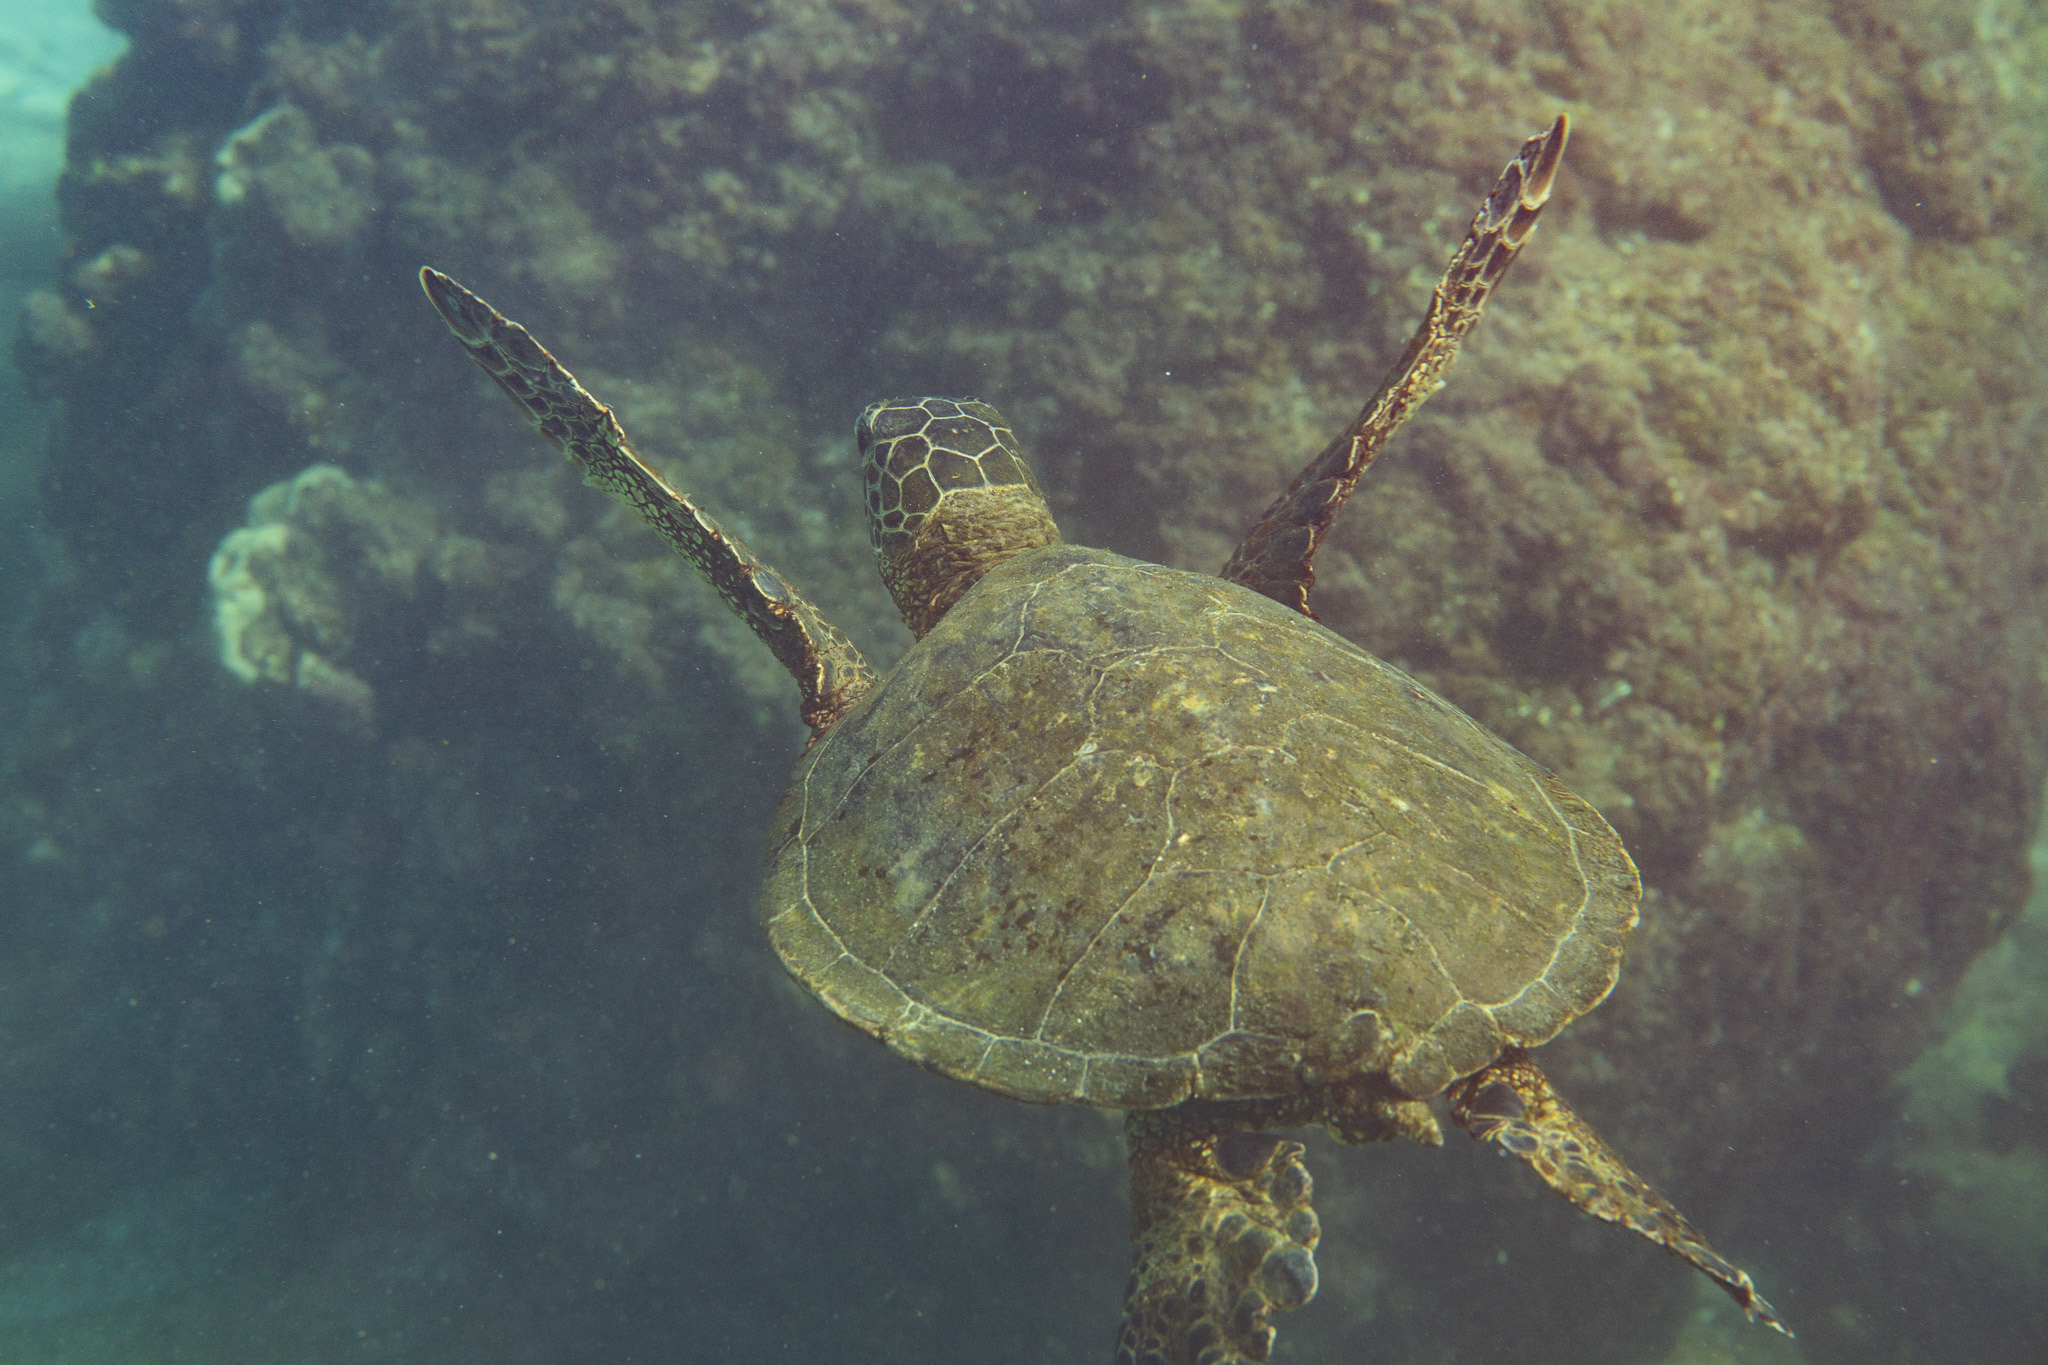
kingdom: Animalia
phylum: Chordata
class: Testudines
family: Cheloniidae
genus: Chelonia
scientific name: Chelonia mydas
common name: Green turtle
